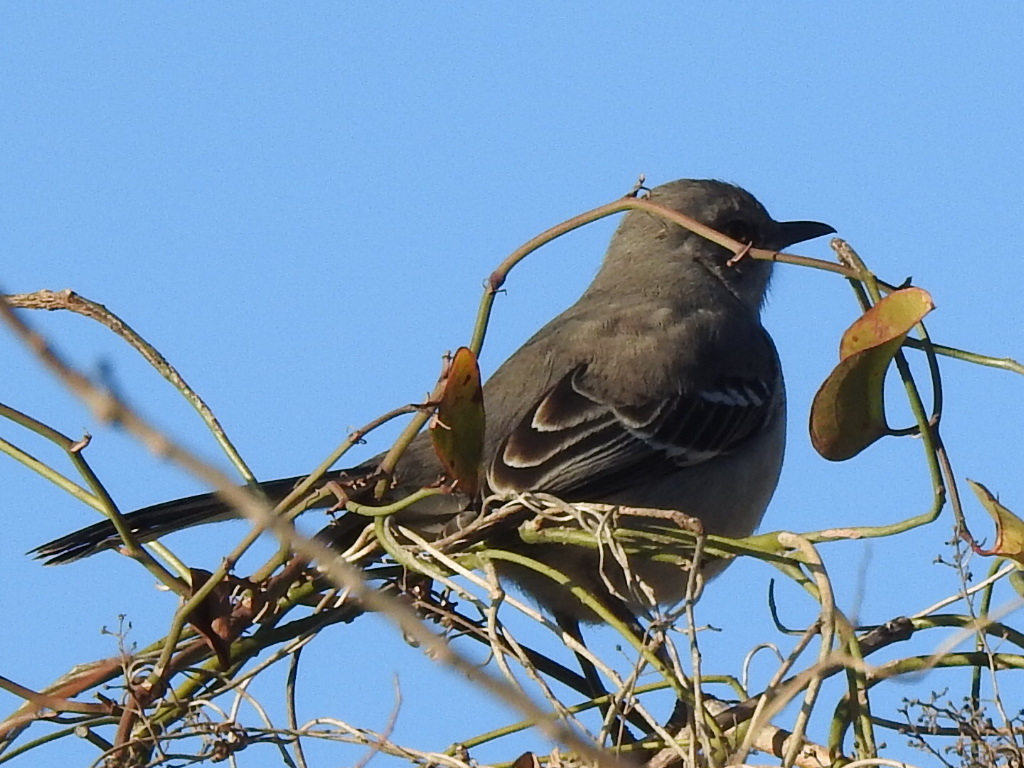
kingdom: Animalia
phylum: Chordata
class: Aves
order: Passeriformes
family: Mimidae
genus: Mimus
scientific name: Mimus polyglottos
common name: Northern mockingbird
